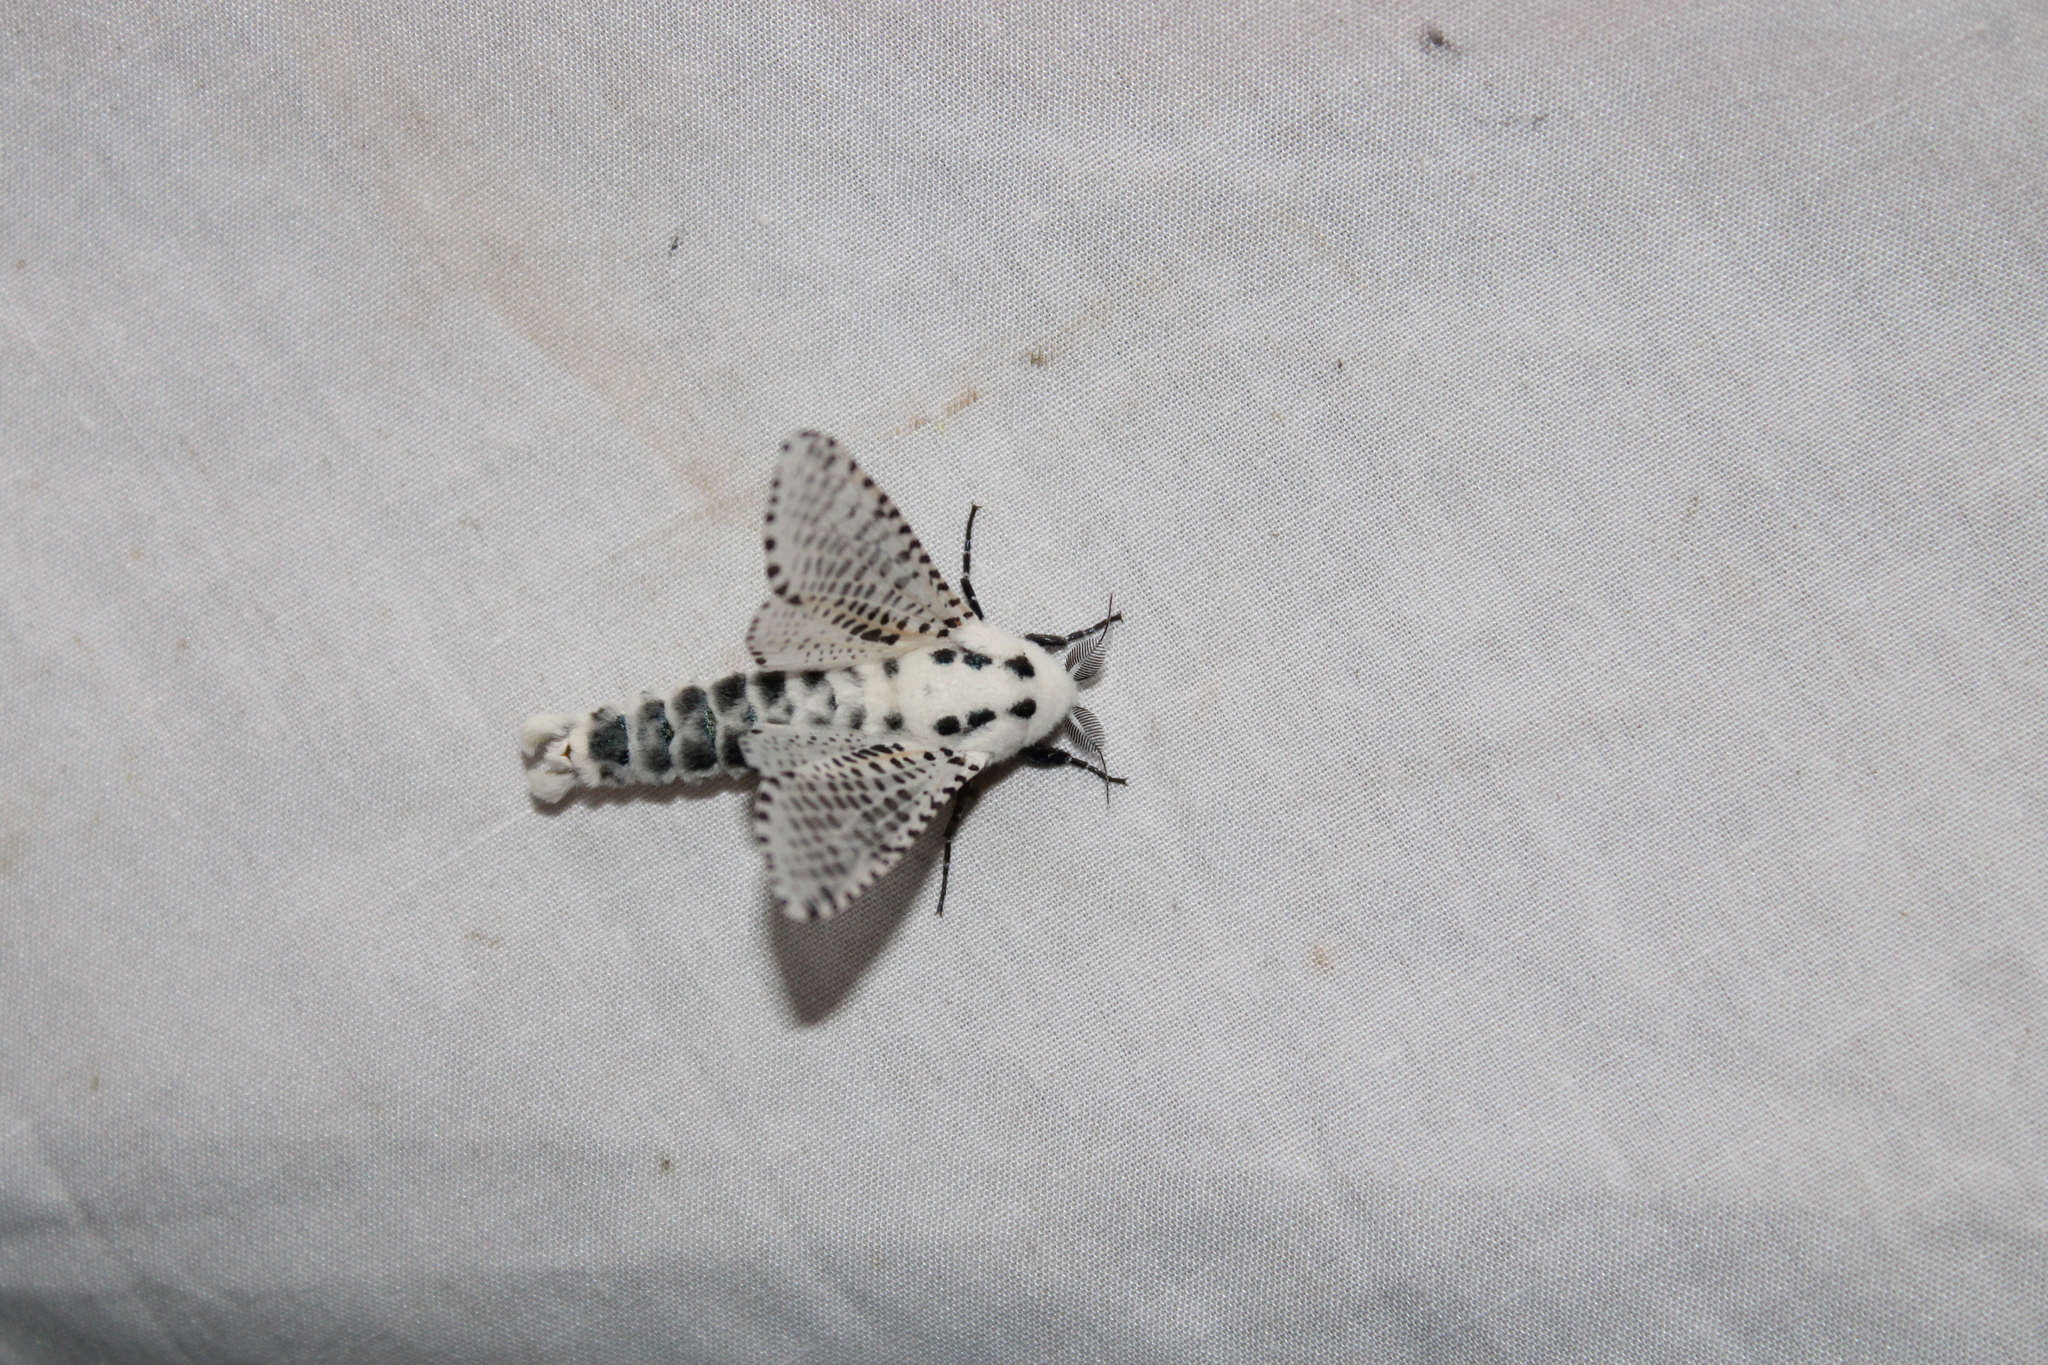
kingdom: Animalia
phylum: Arthropoda
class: Insecta
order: Lepidoptera
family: Cossidae
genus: Zeuzera
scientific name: Zeuzera pyrina
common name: Leopard moth
